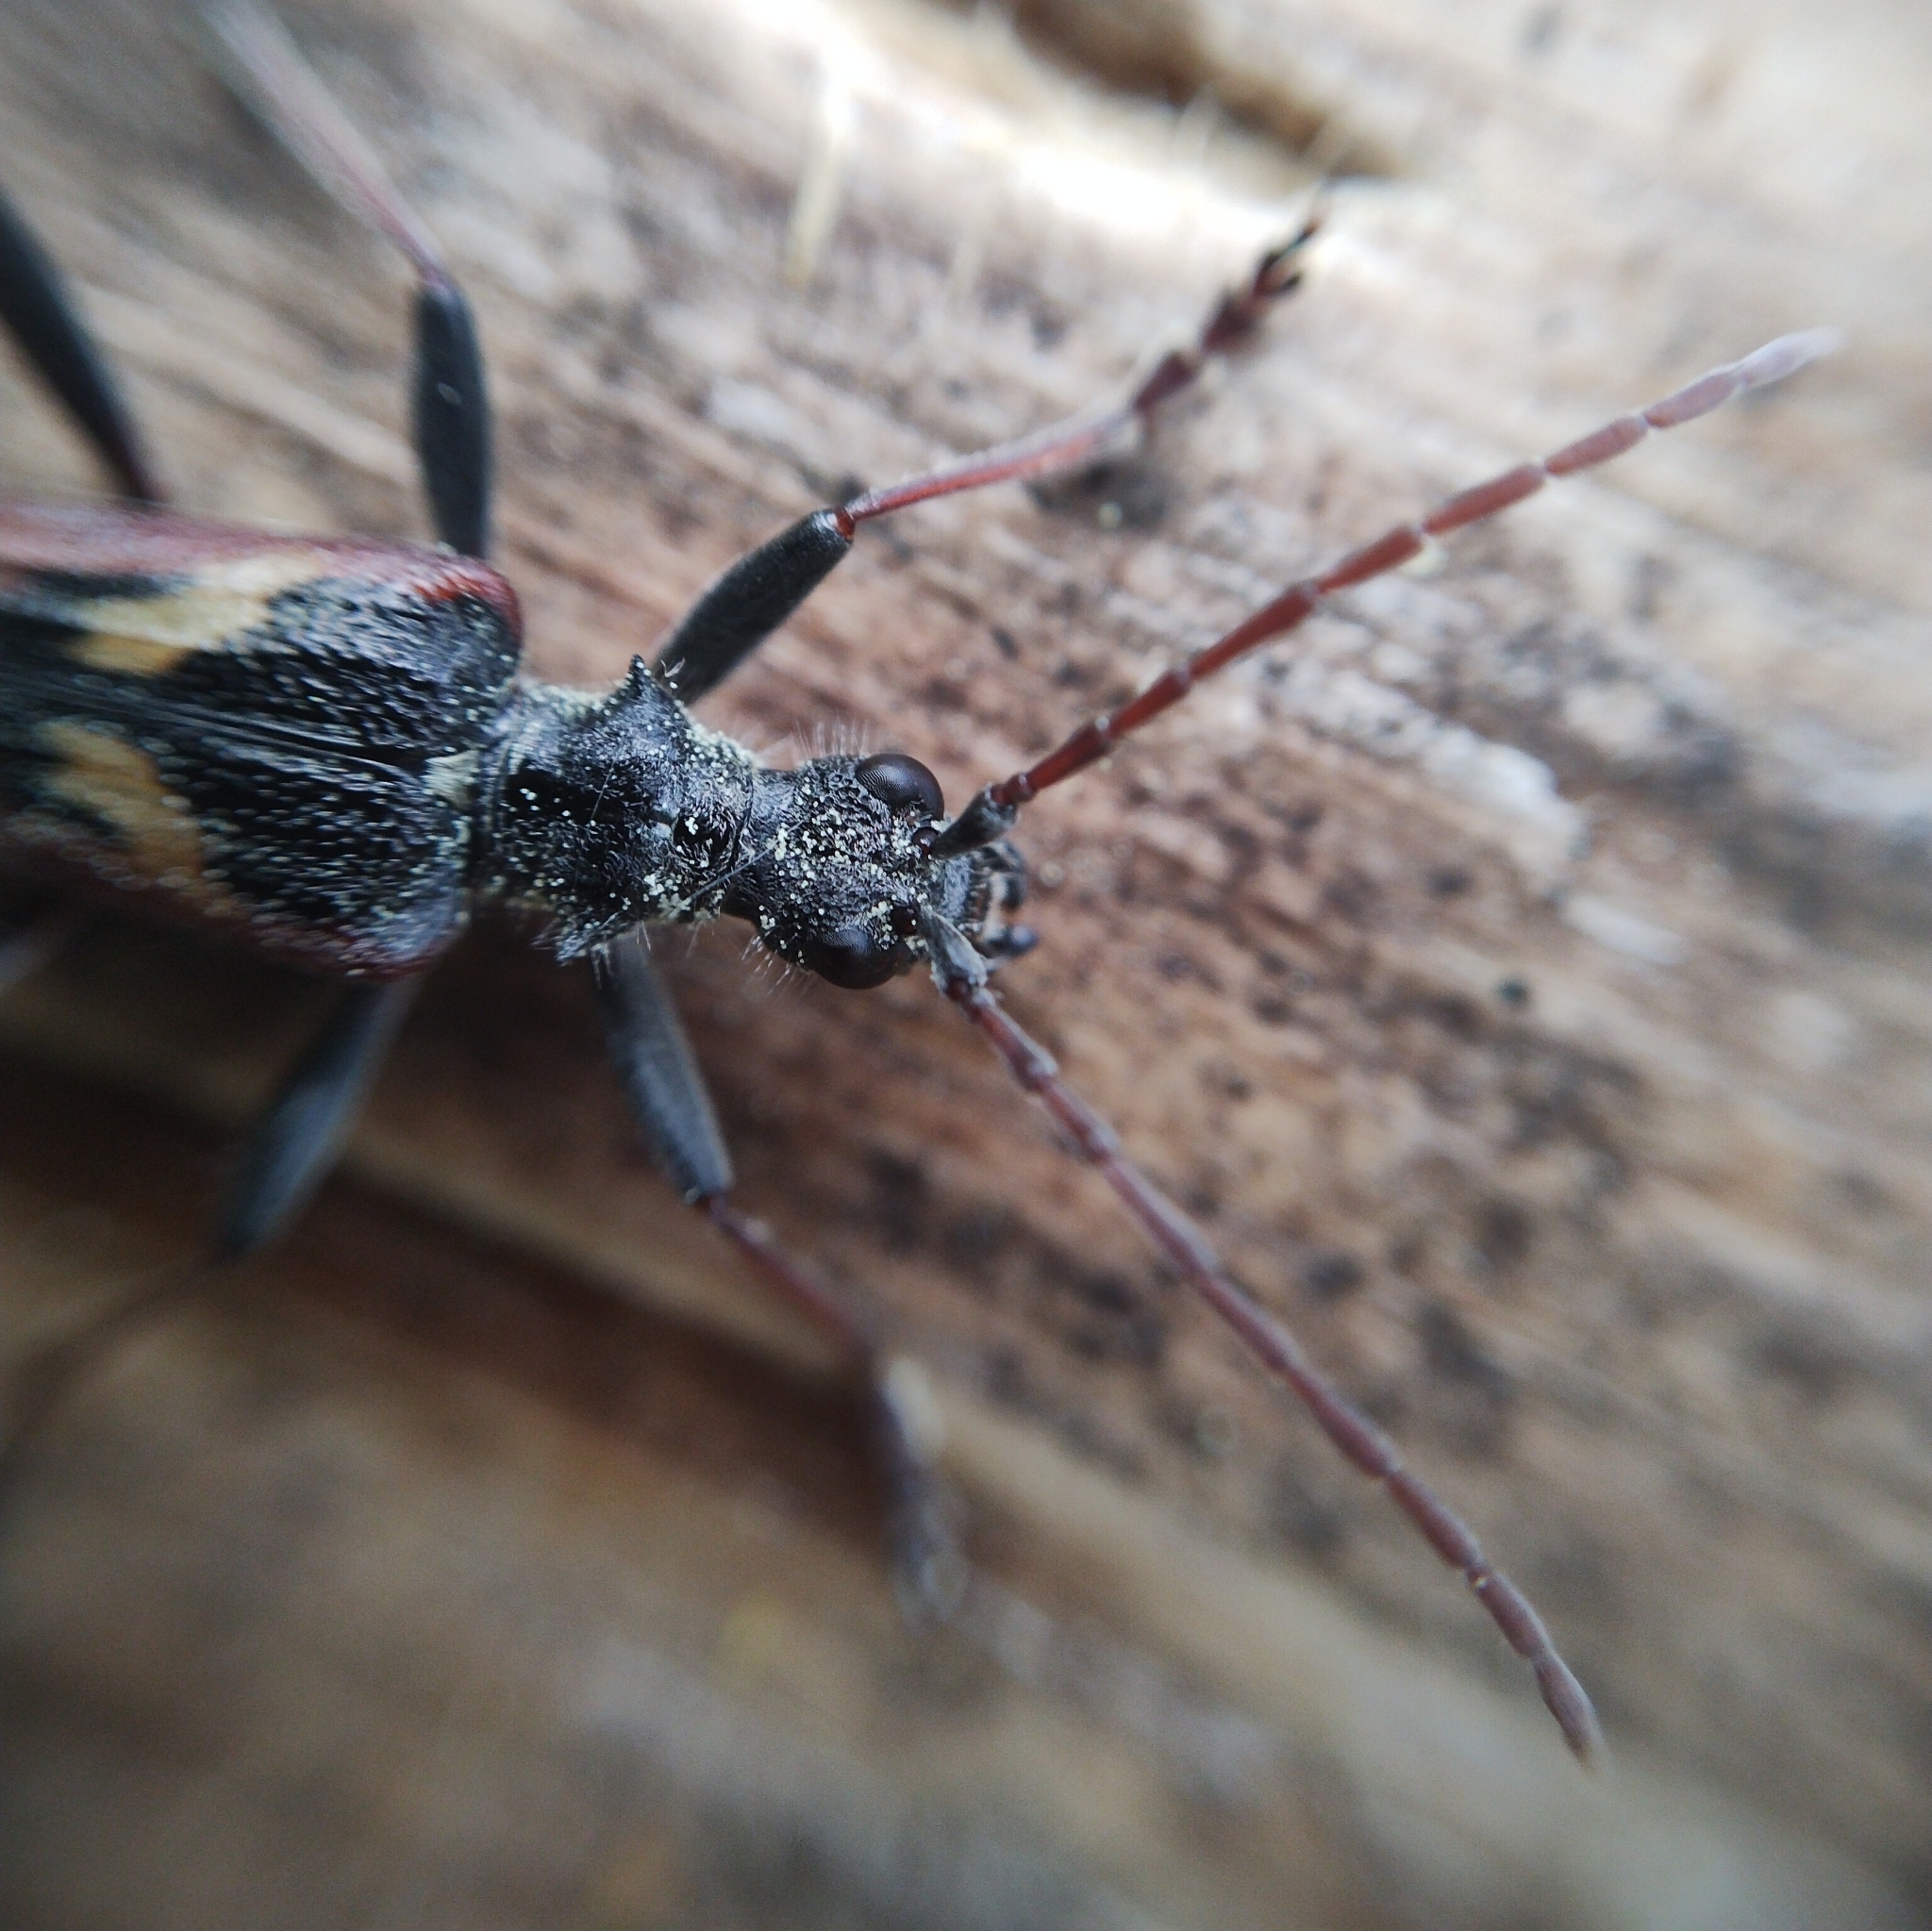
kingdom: Animalia
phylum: Arthropoda
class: Insecta
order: Coleoptera
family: Cerambycidae
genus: Rhagium
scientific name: Rhagium bifasciatum
